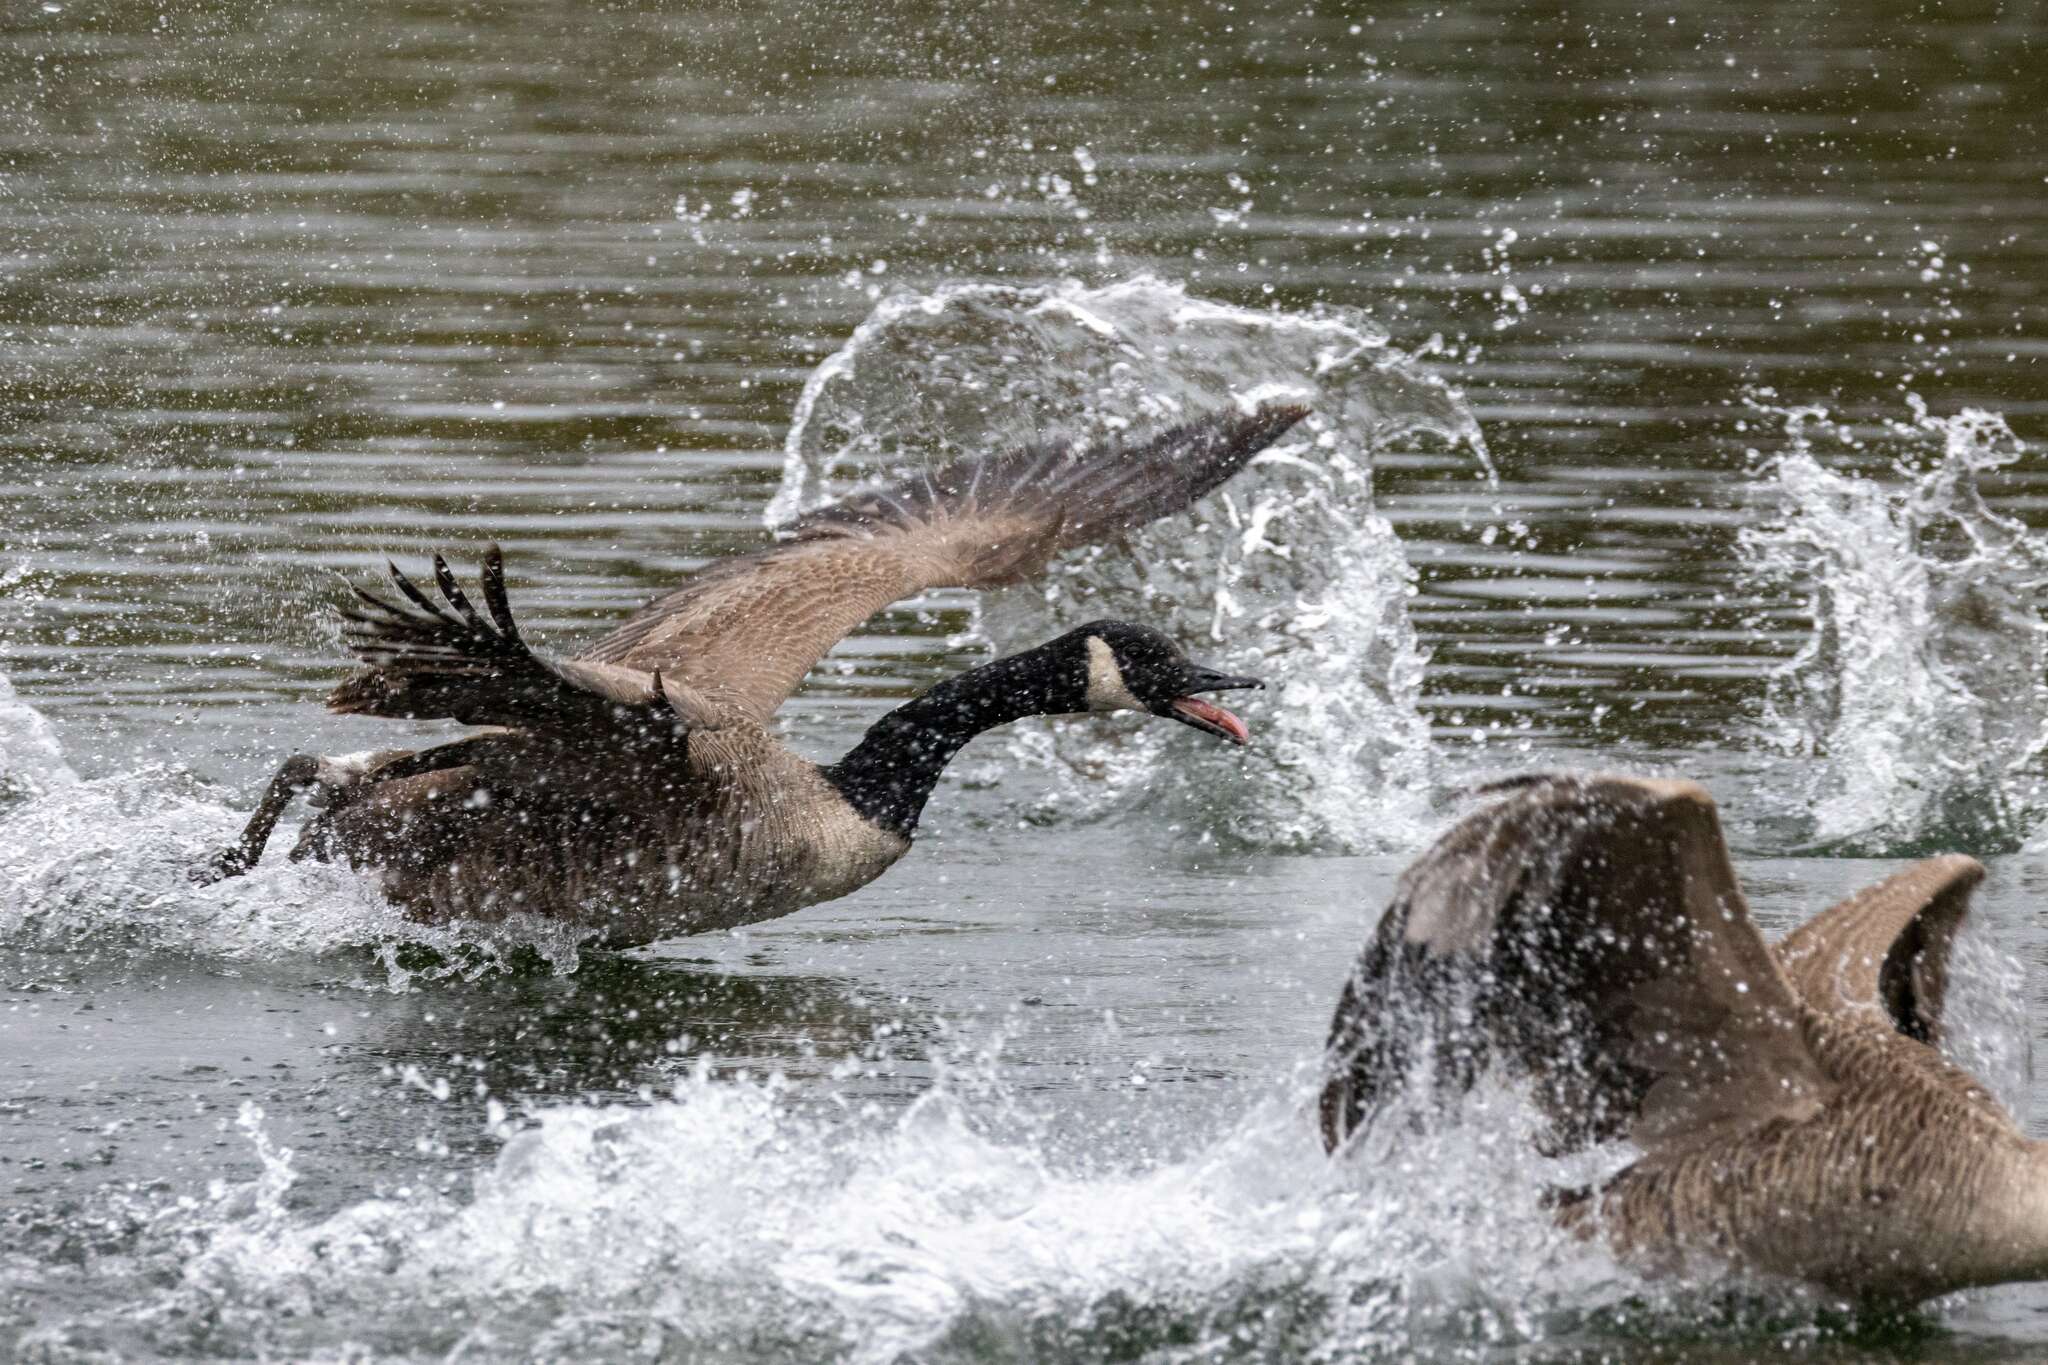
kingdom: Animalia
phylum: Chordata
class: Aves
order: Anseriformes
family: Anatidae
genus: Branta
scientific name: Branta canadensis
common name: Canada goose
